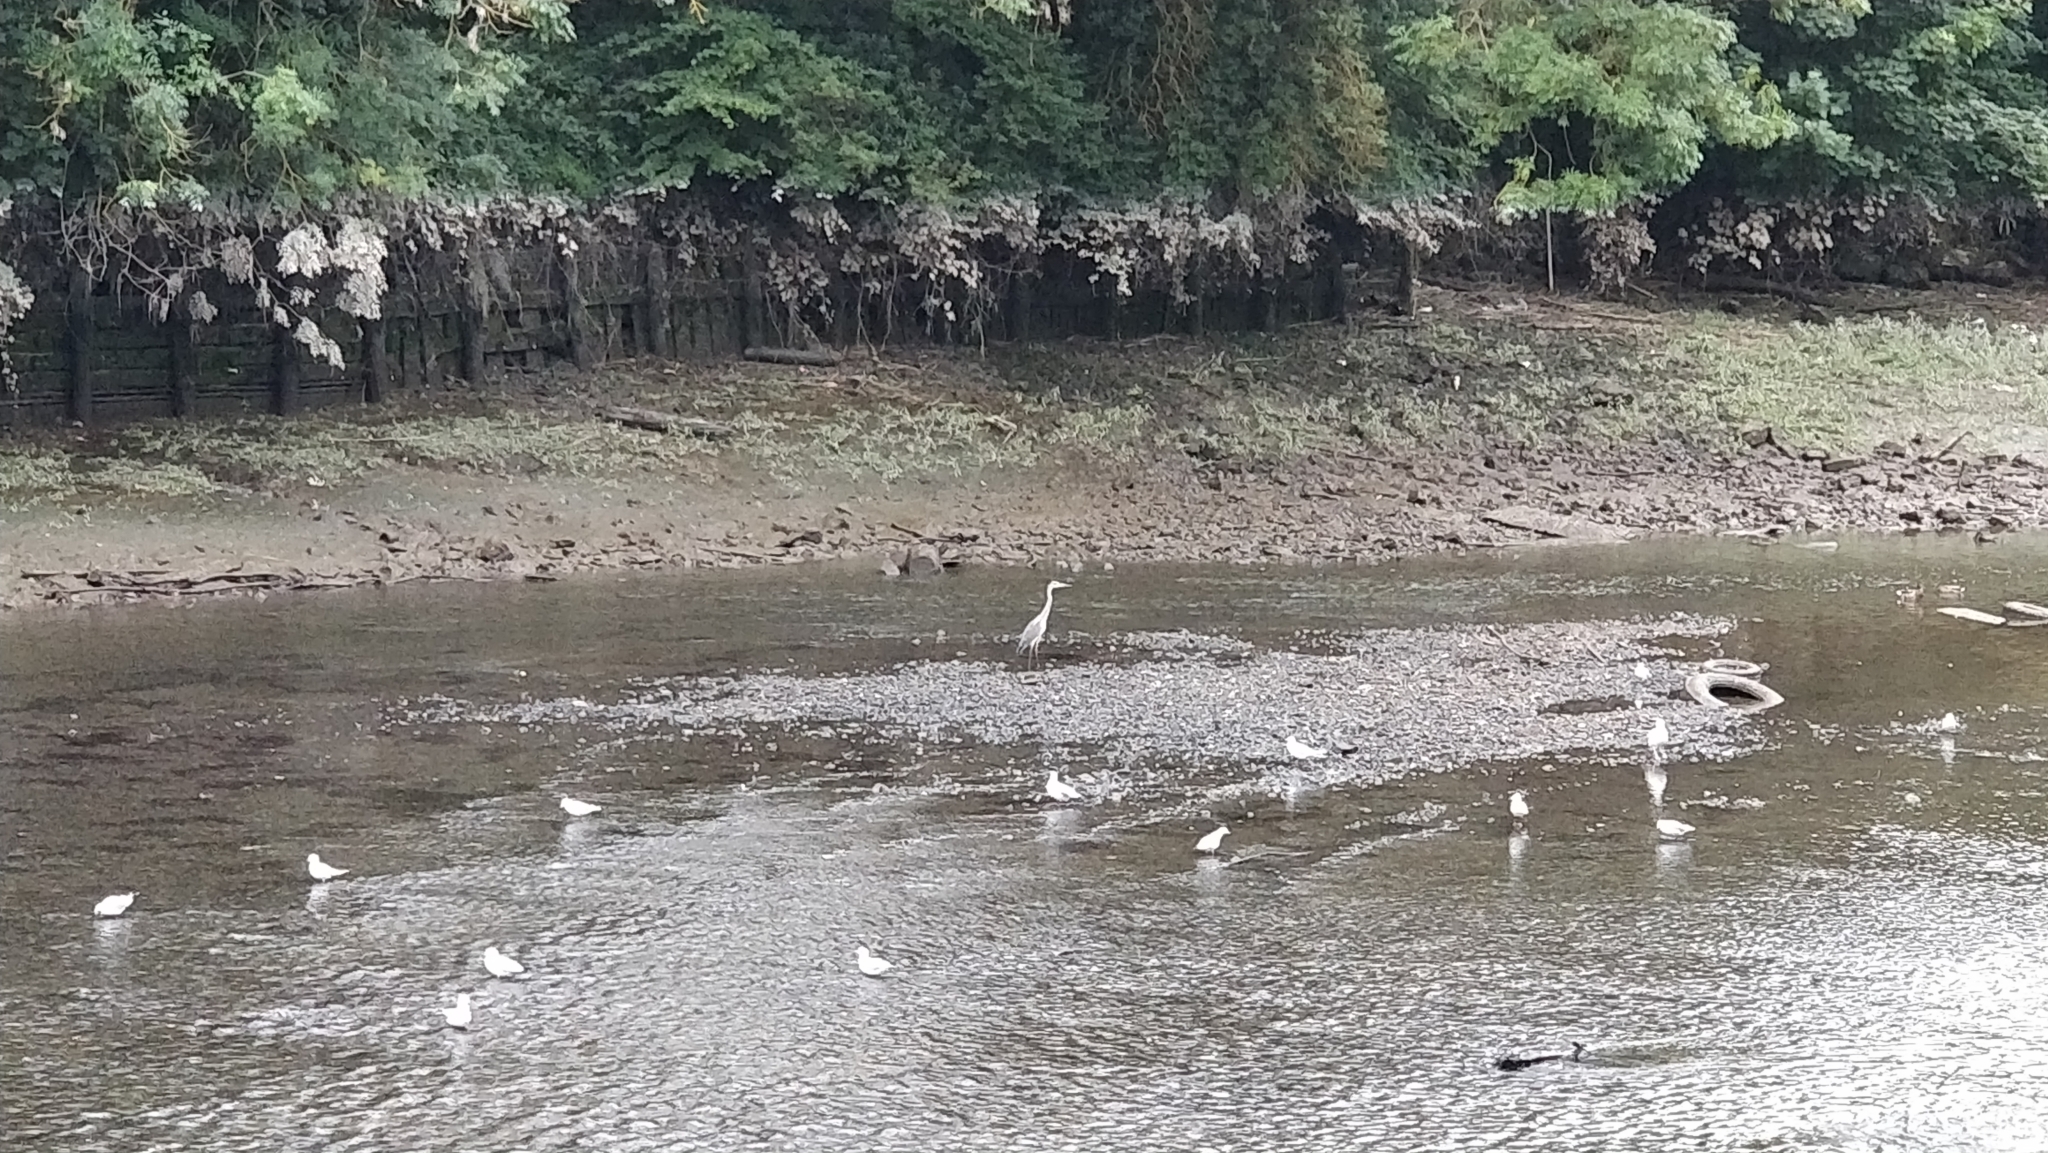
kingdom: Animalia
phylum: Chordata
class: Aves
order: Pelecaniformes
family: Ardeidae
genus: Ardea
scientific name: Ardea cinerea
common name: Grey heron
